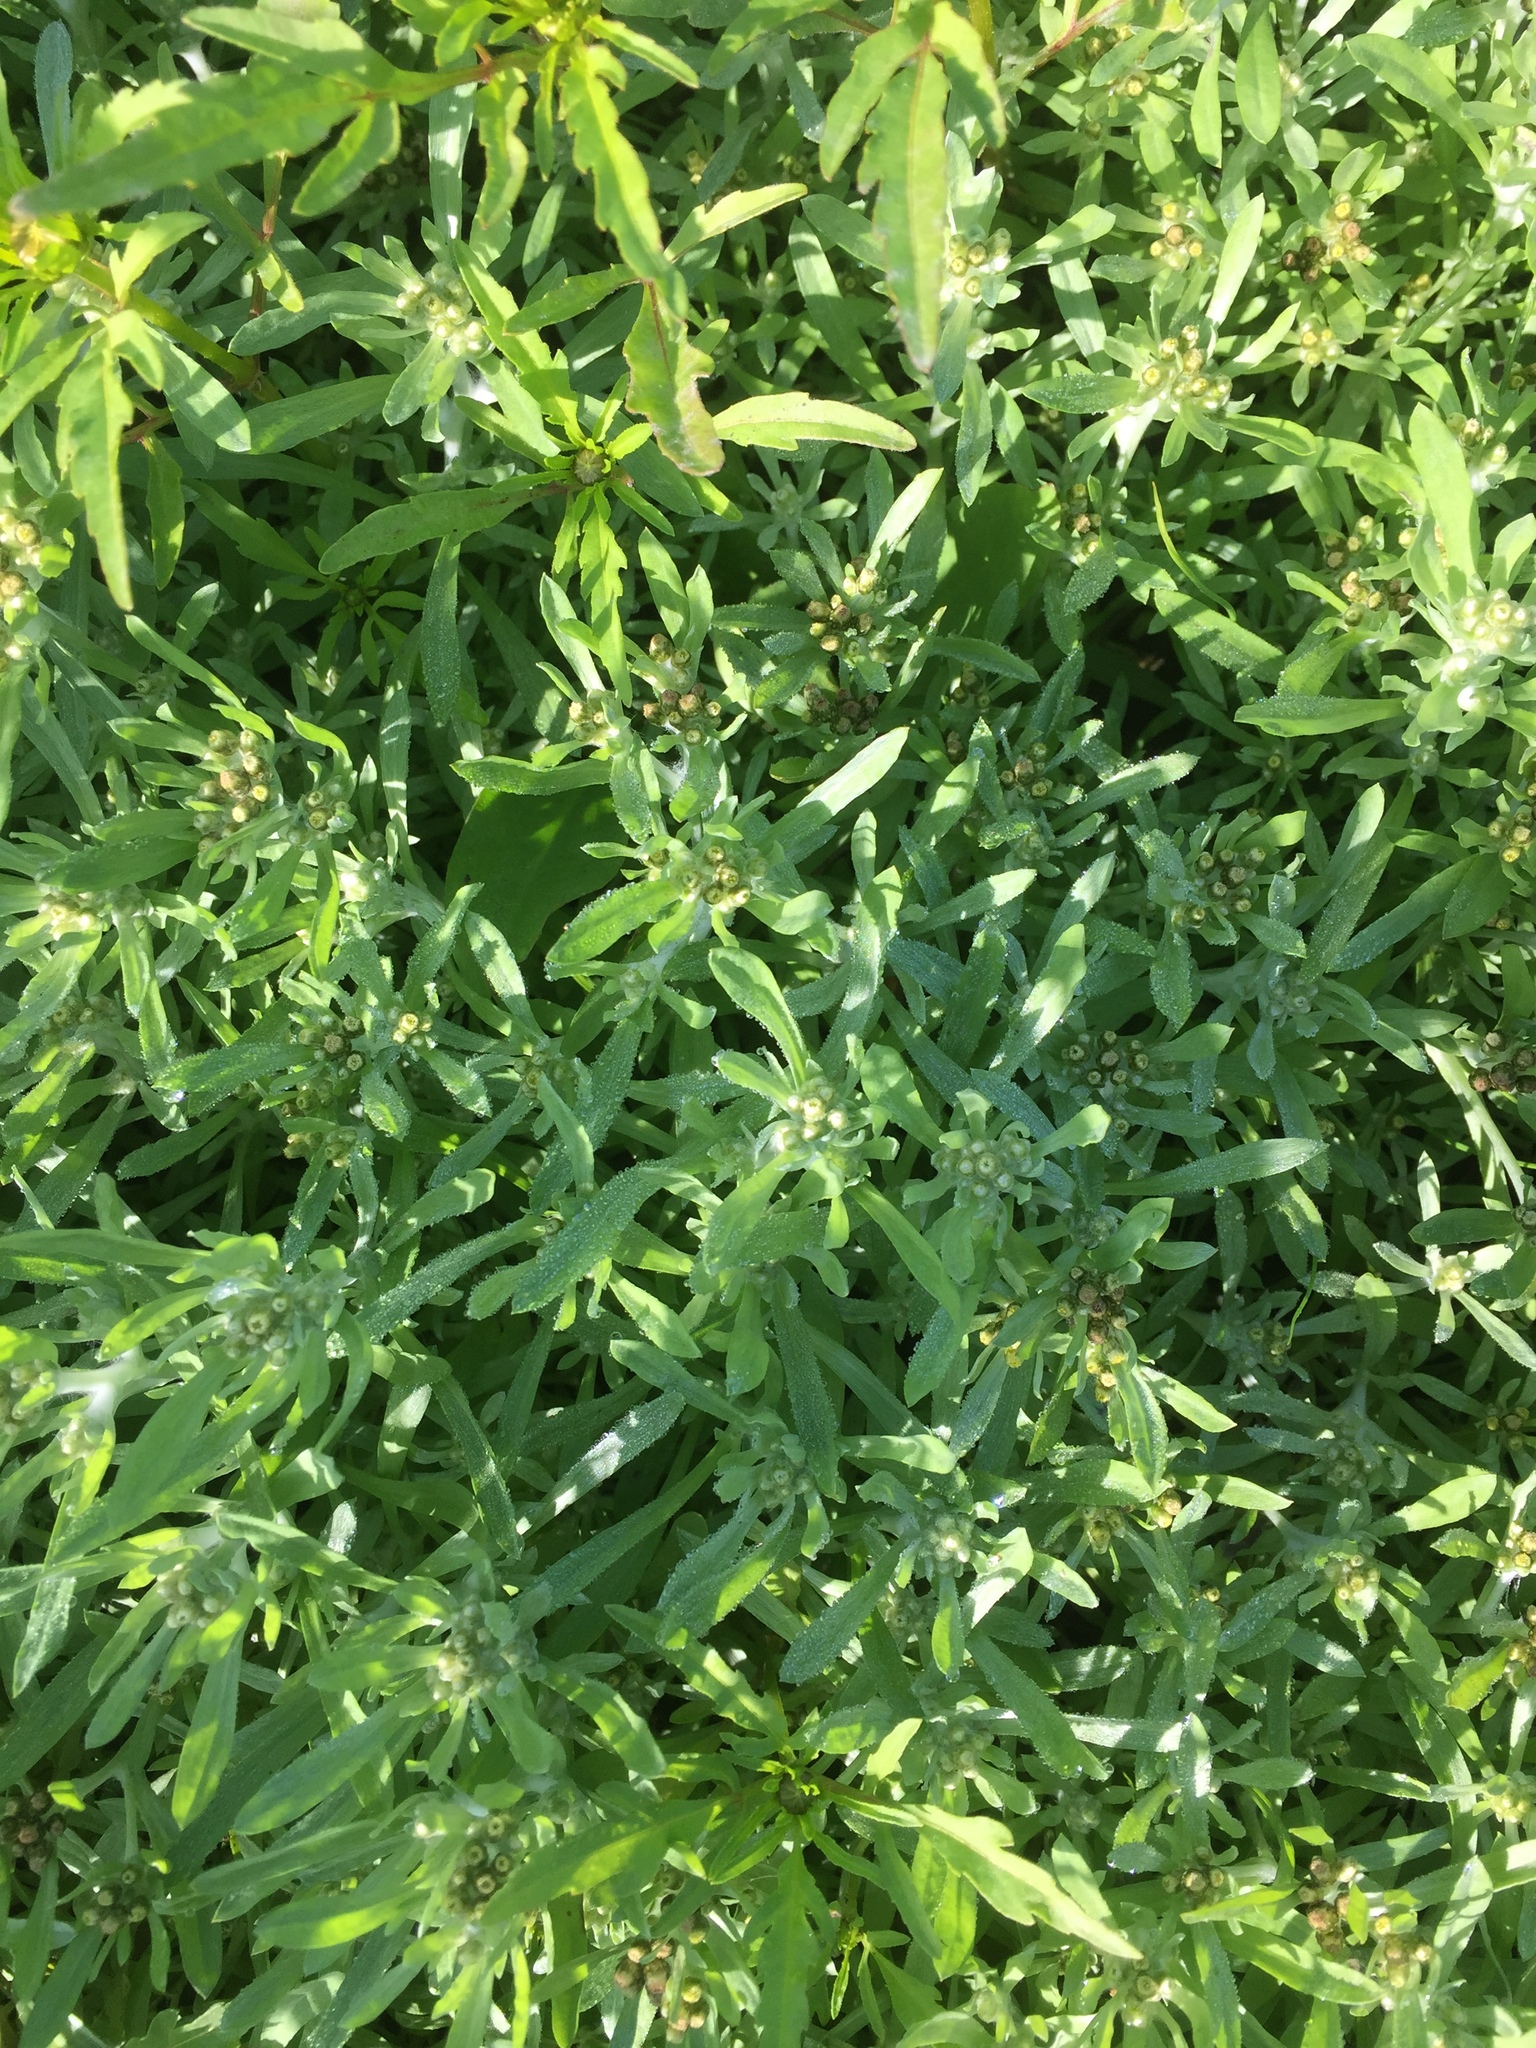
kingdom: Plantae
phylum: Tracheophyta
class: Magnoliopsida
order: Asterales
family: Asteraceae
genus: Gnaphalium
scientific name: Gnaphalium uliginosum
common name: Marsh cudweed
